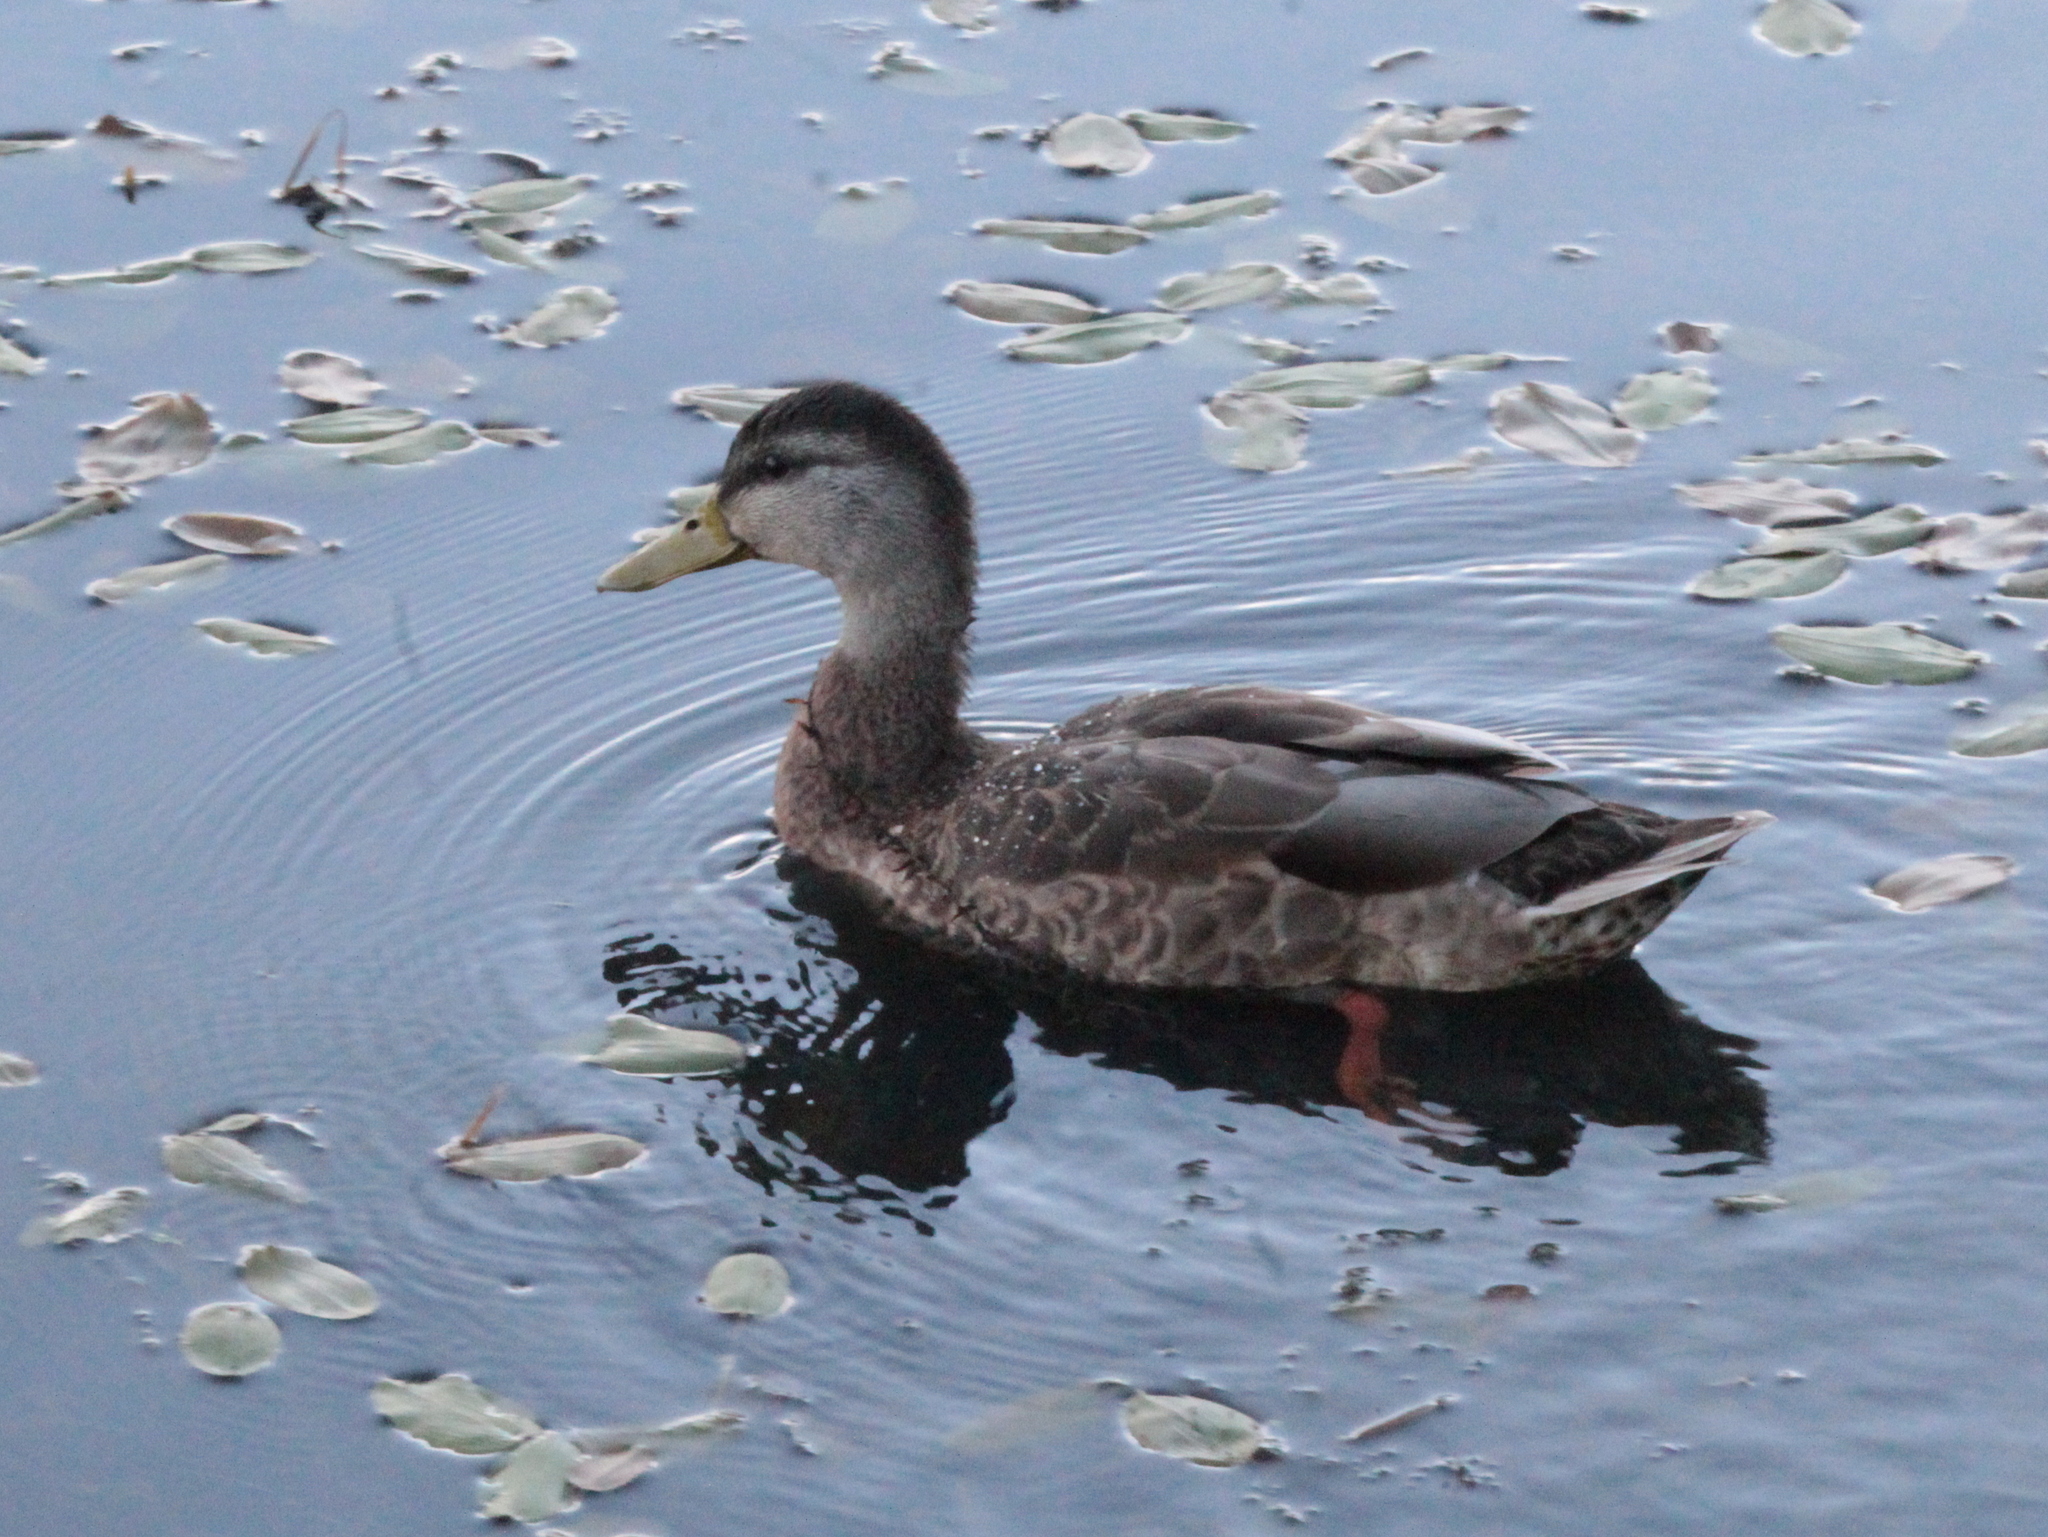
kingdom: Animalia
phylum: Chordata
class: Aves
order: Anseriformes
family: Anatidae
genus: Anas
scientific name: Anas platyrhynchos
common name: Mallard
